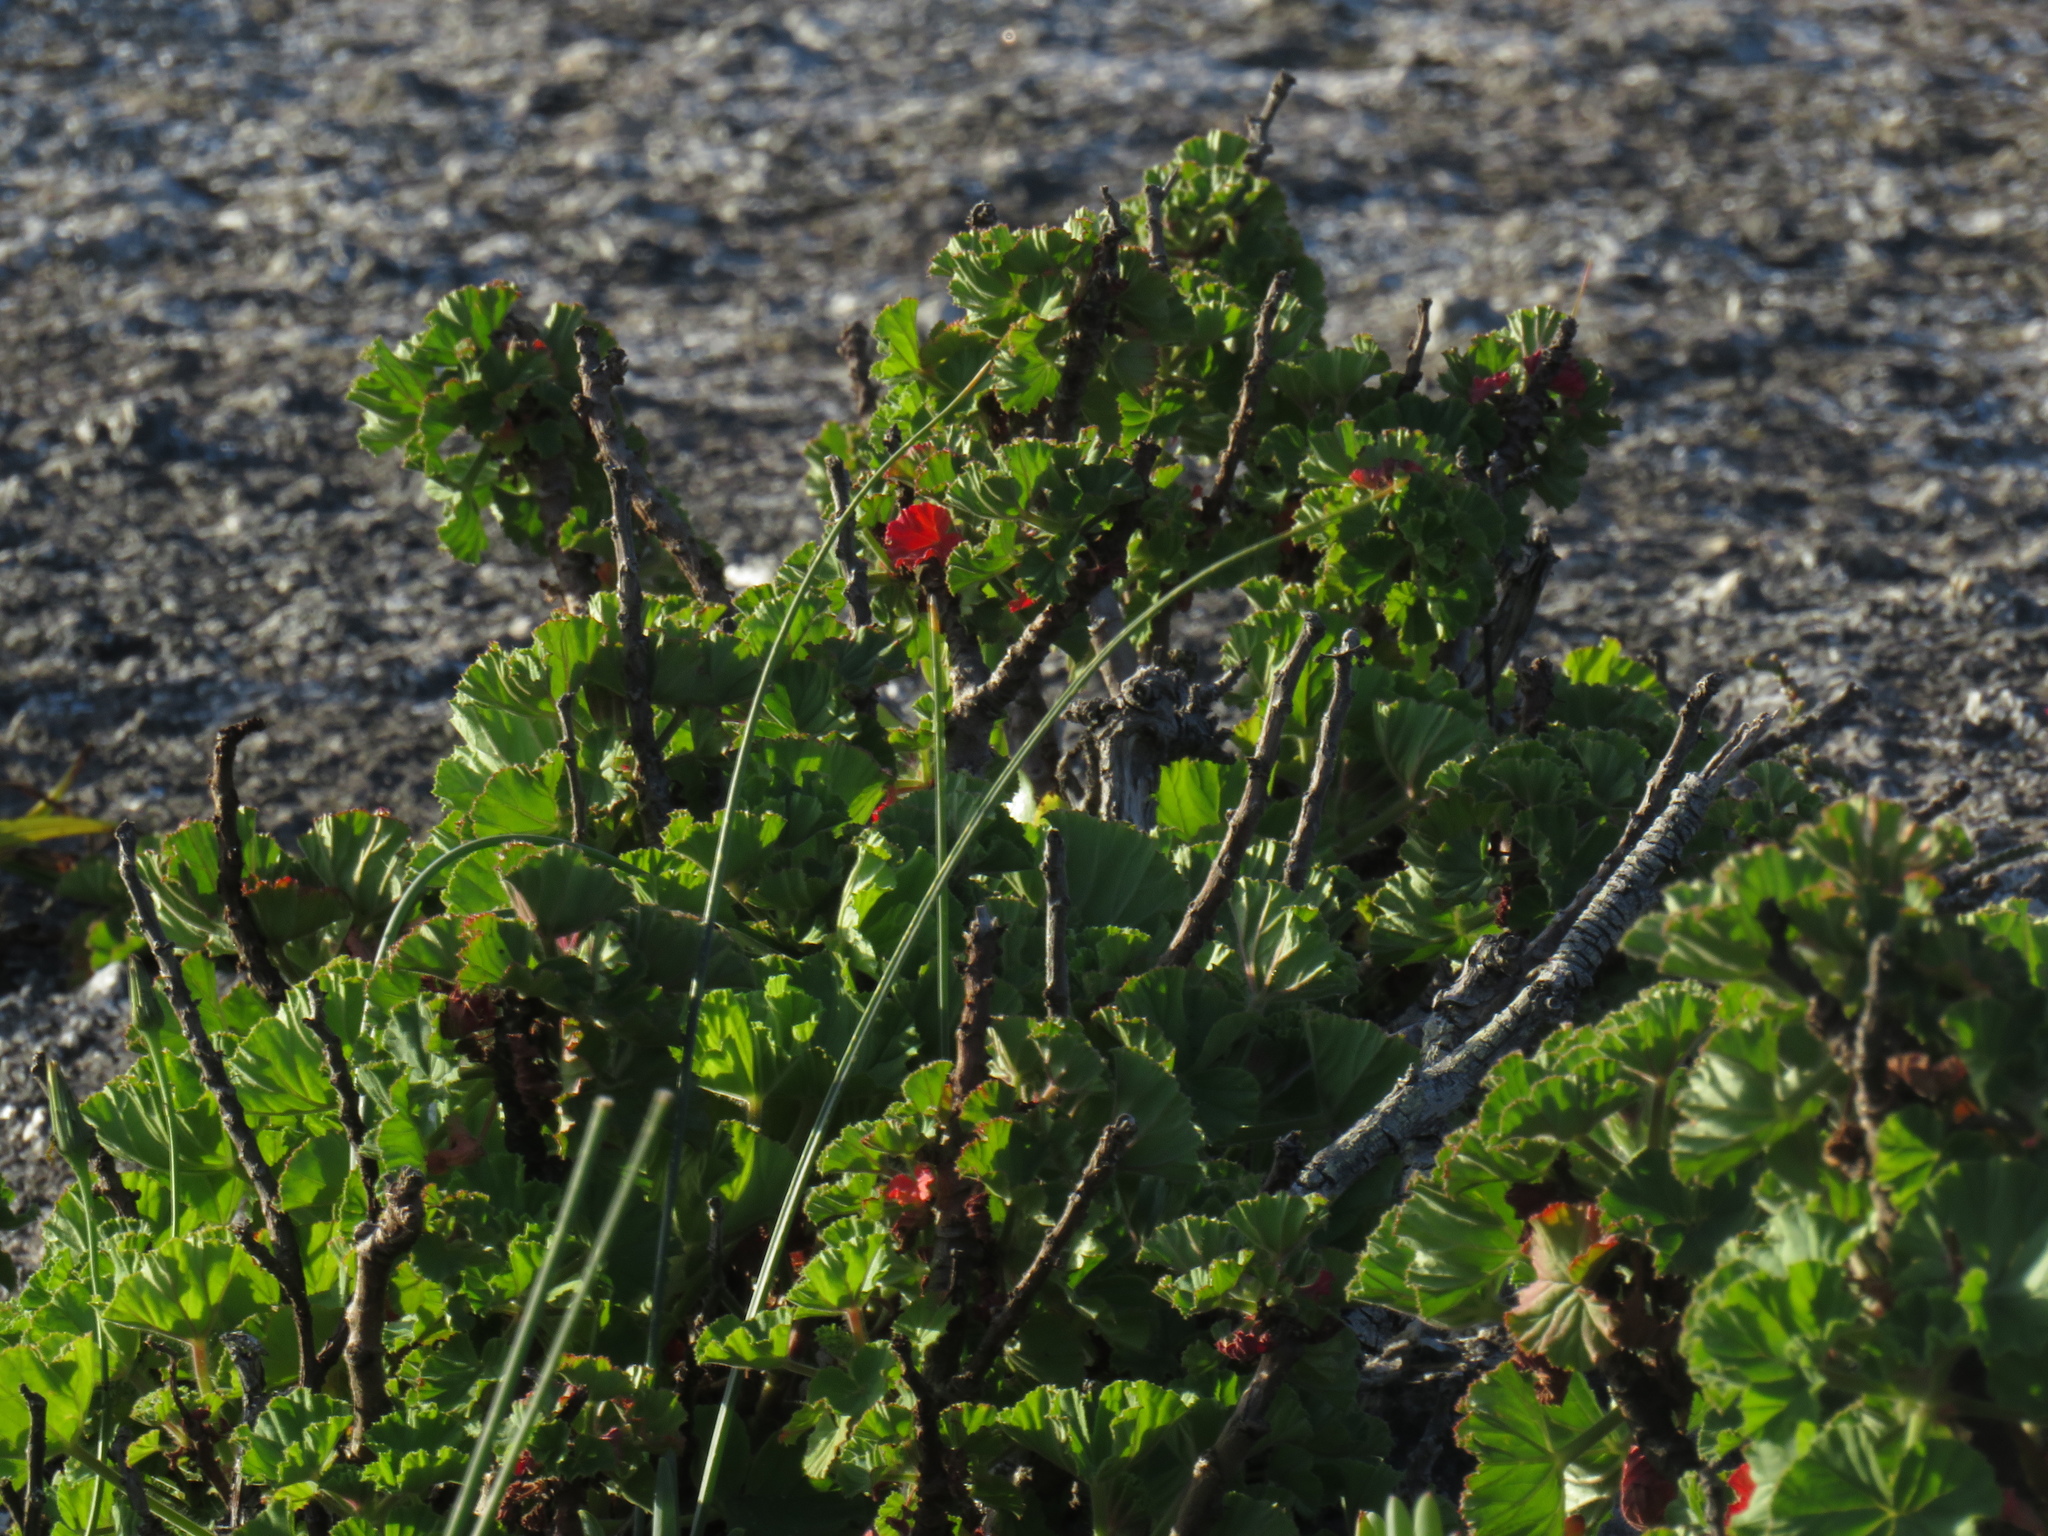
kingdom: Plantae
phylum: Tracheophyta
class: Magnoliopsida
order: Geraniales
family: Geraniaceae
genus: Pelargonium
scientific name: Pelargonium cucullatum
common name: Tree pelargonium
